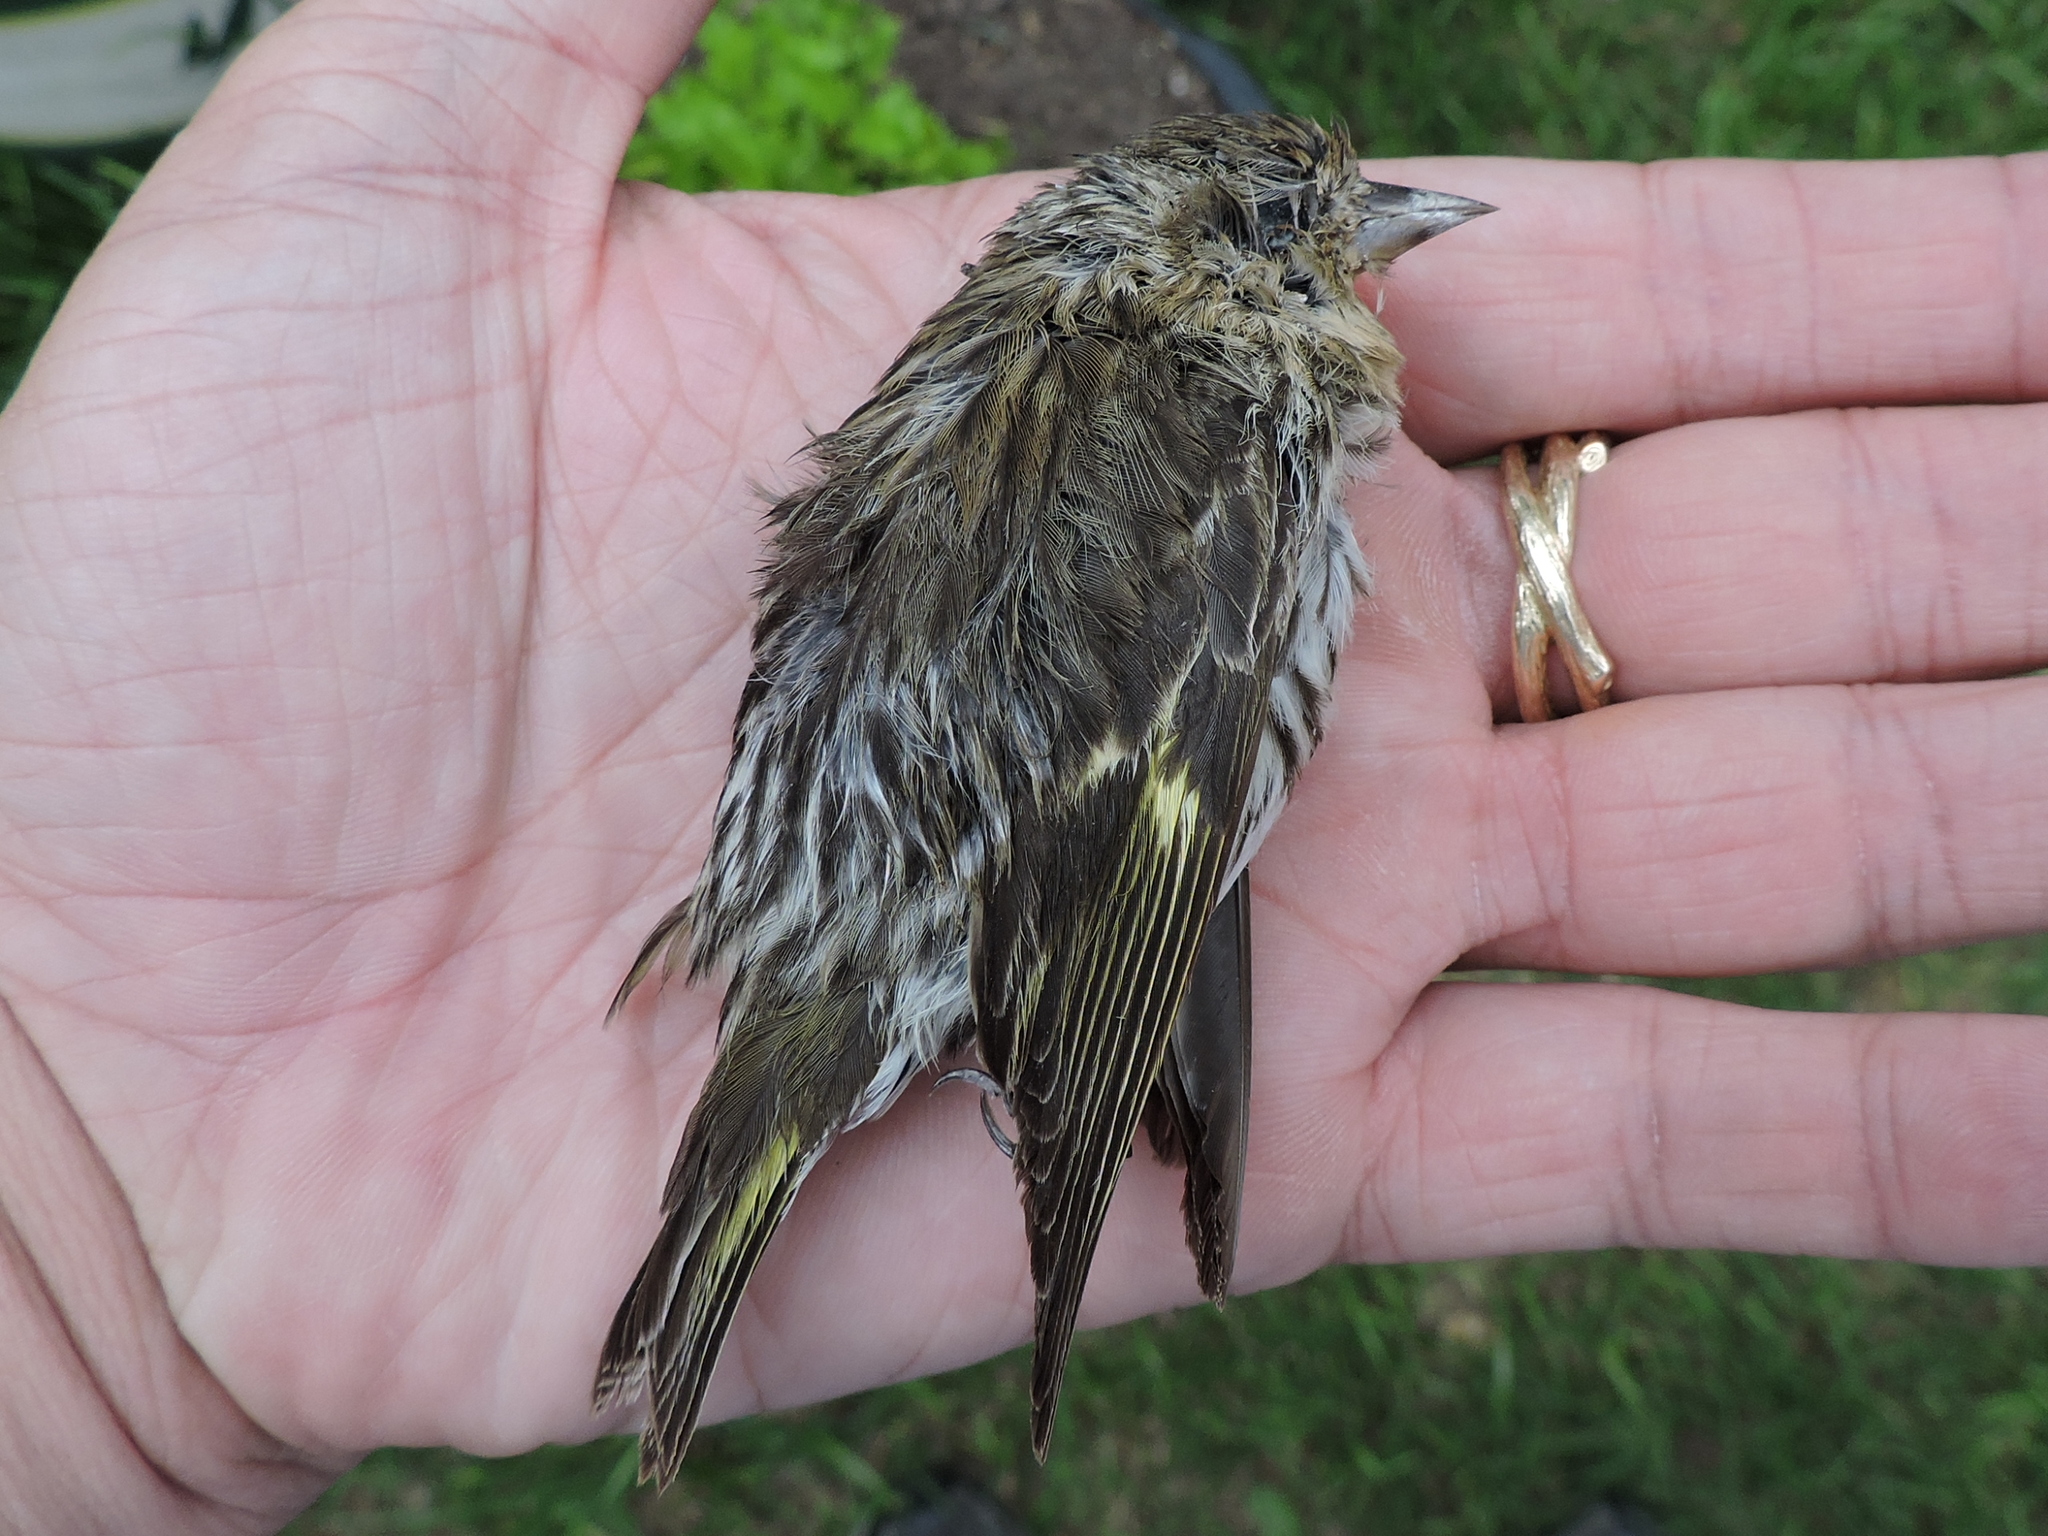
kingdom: Animalia
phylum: Chordata
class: Aves
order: Passeriformes
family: Fringillidae
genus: Spinus
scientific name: Spinus pinus
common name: Pine siskin
